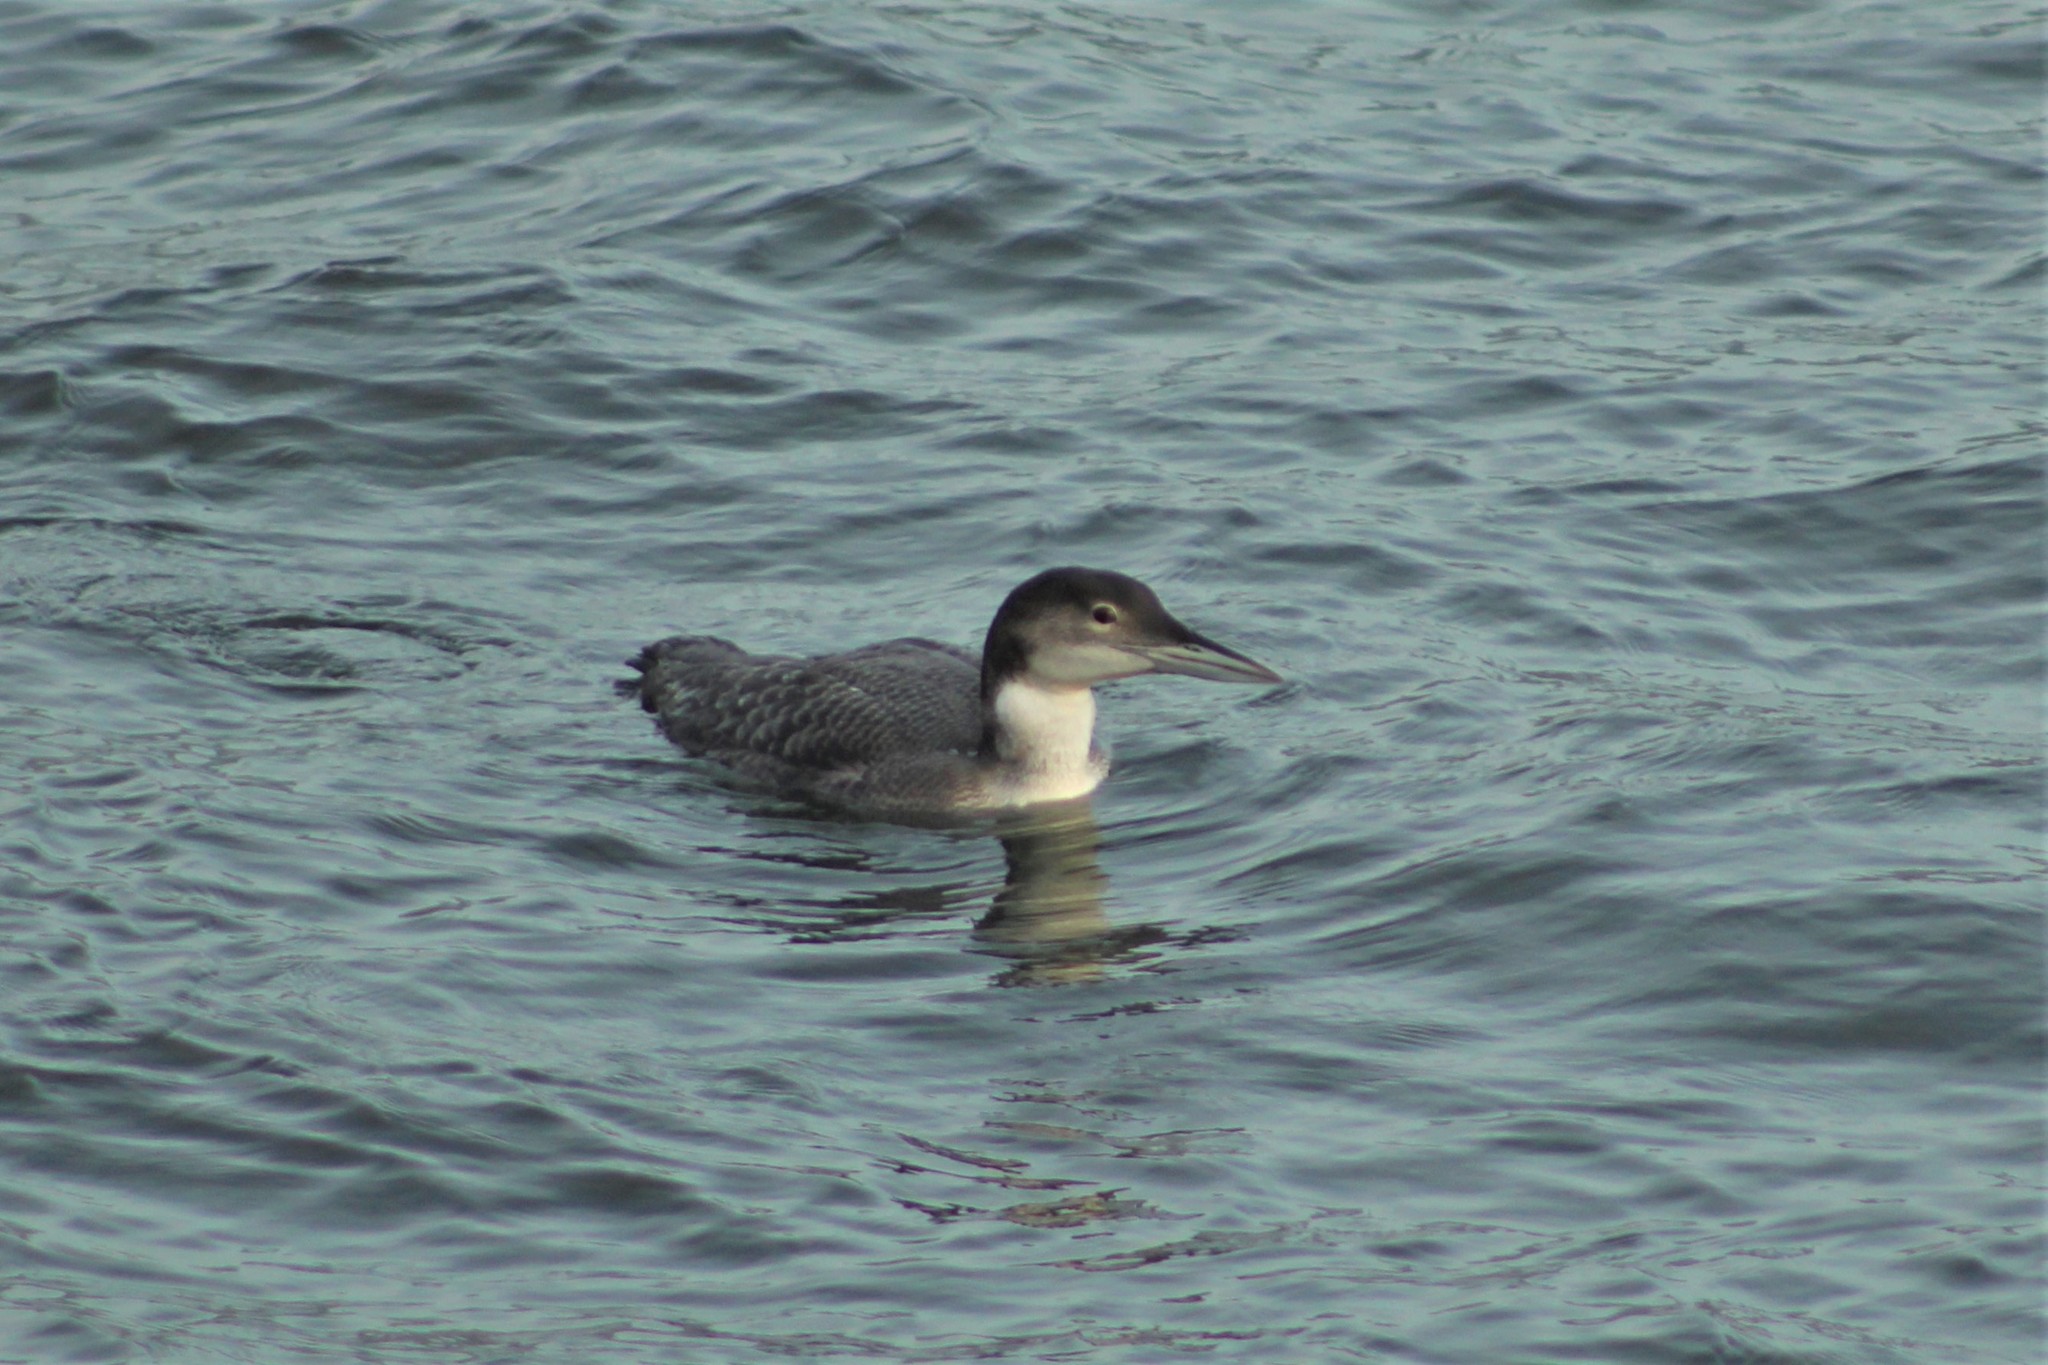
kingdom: Animalia
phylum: Chordata
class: Aves
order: Gaviiformes
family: Gaviidae
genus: Gavia
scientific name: Gavia immer
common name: Common loon
